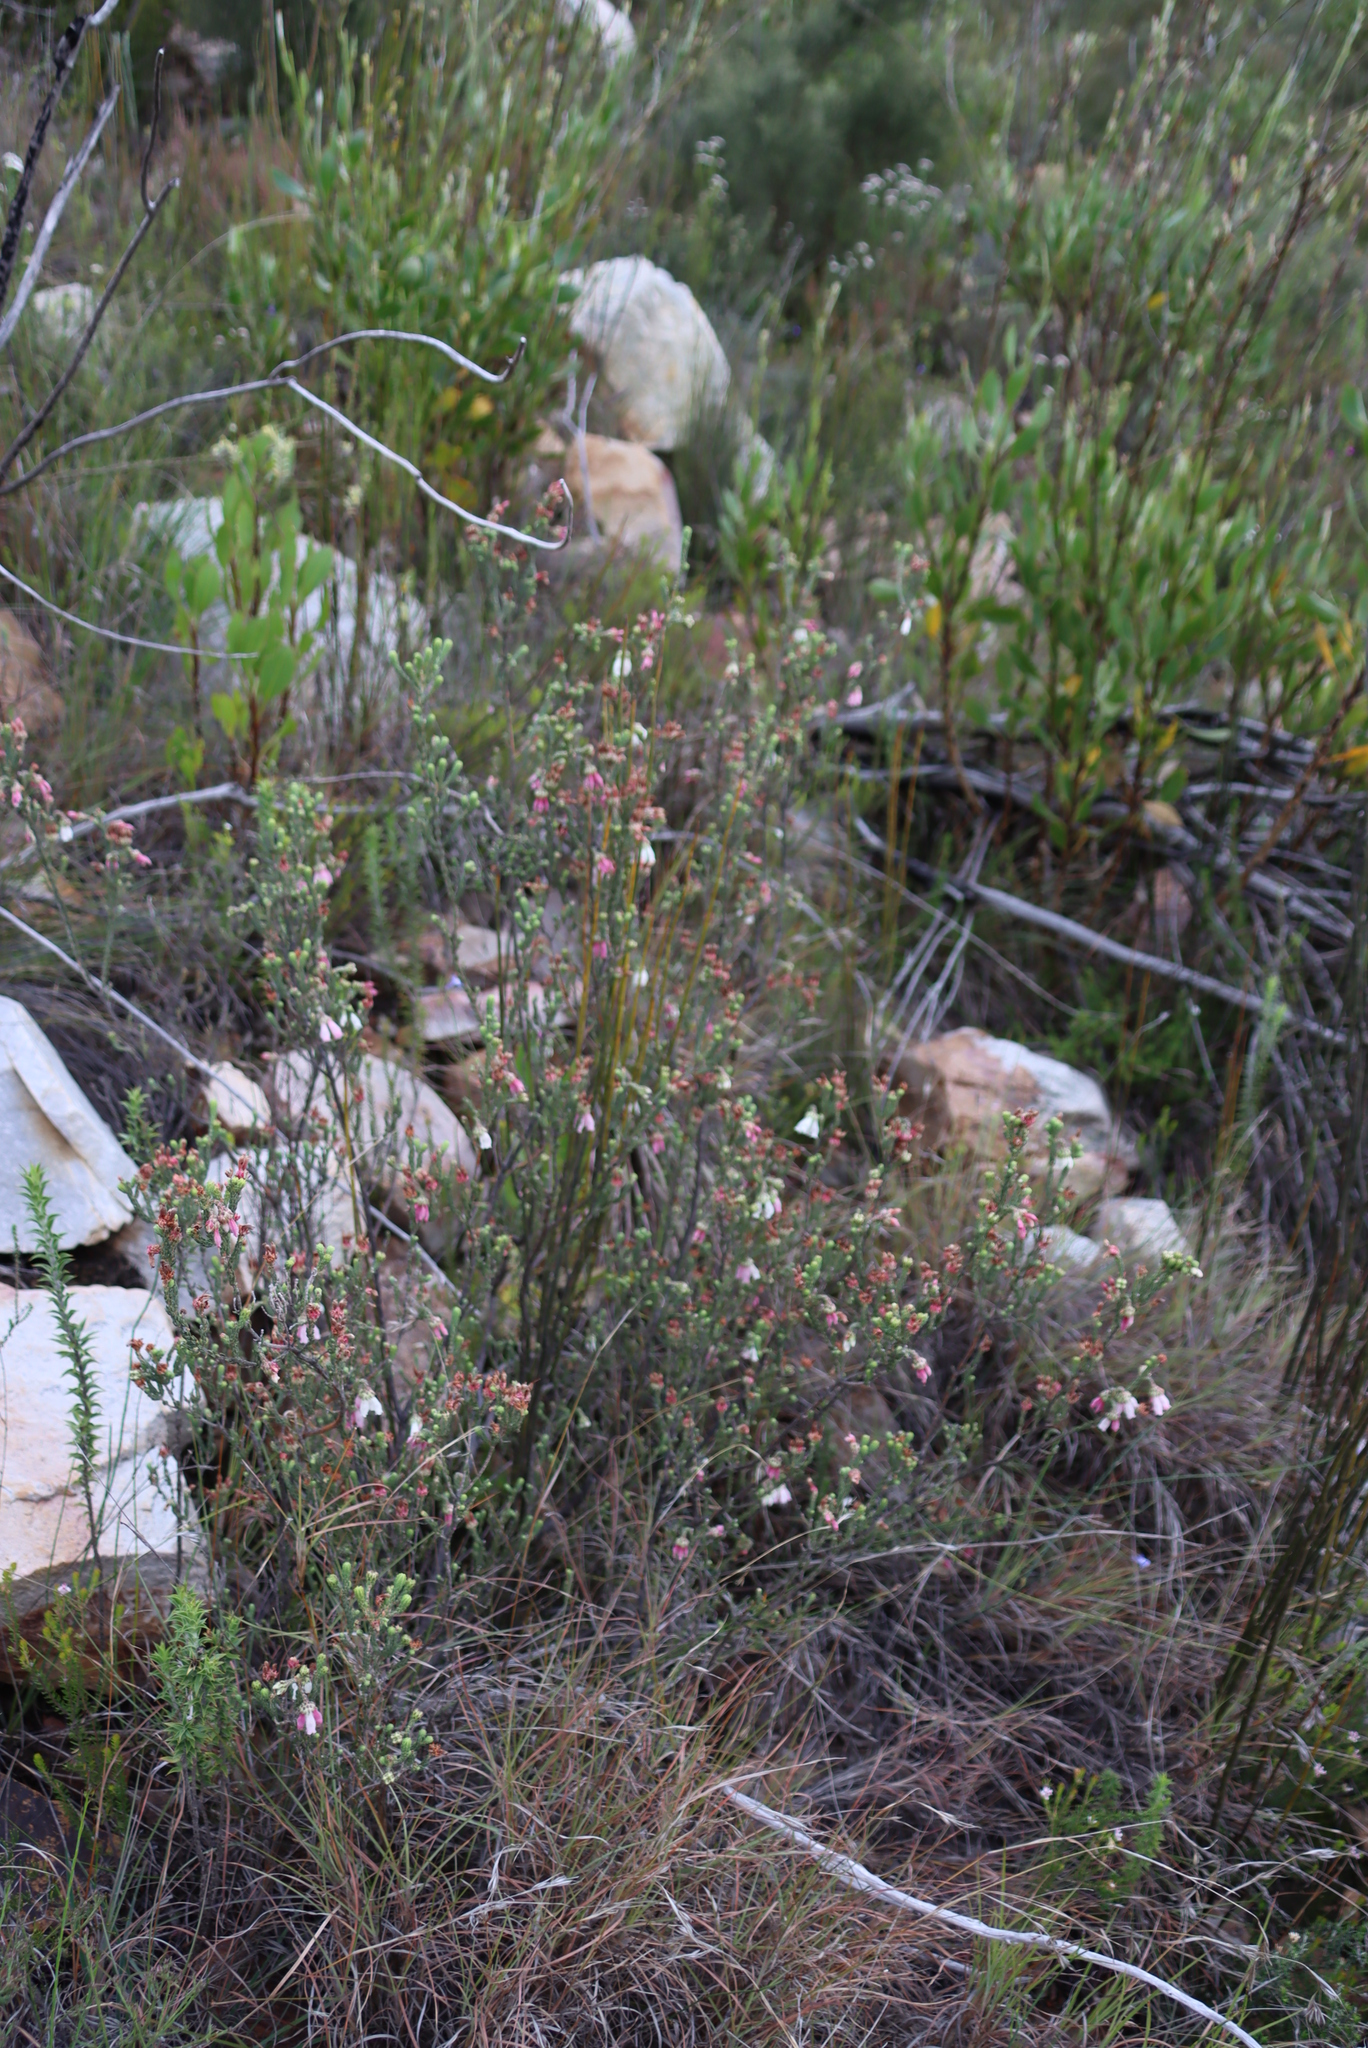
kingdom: Plantae
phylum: Tracheophyta
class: Magnoliopsida
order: Ericales
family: Ericaceae
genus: Erica
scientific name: Erica pectinifolia
